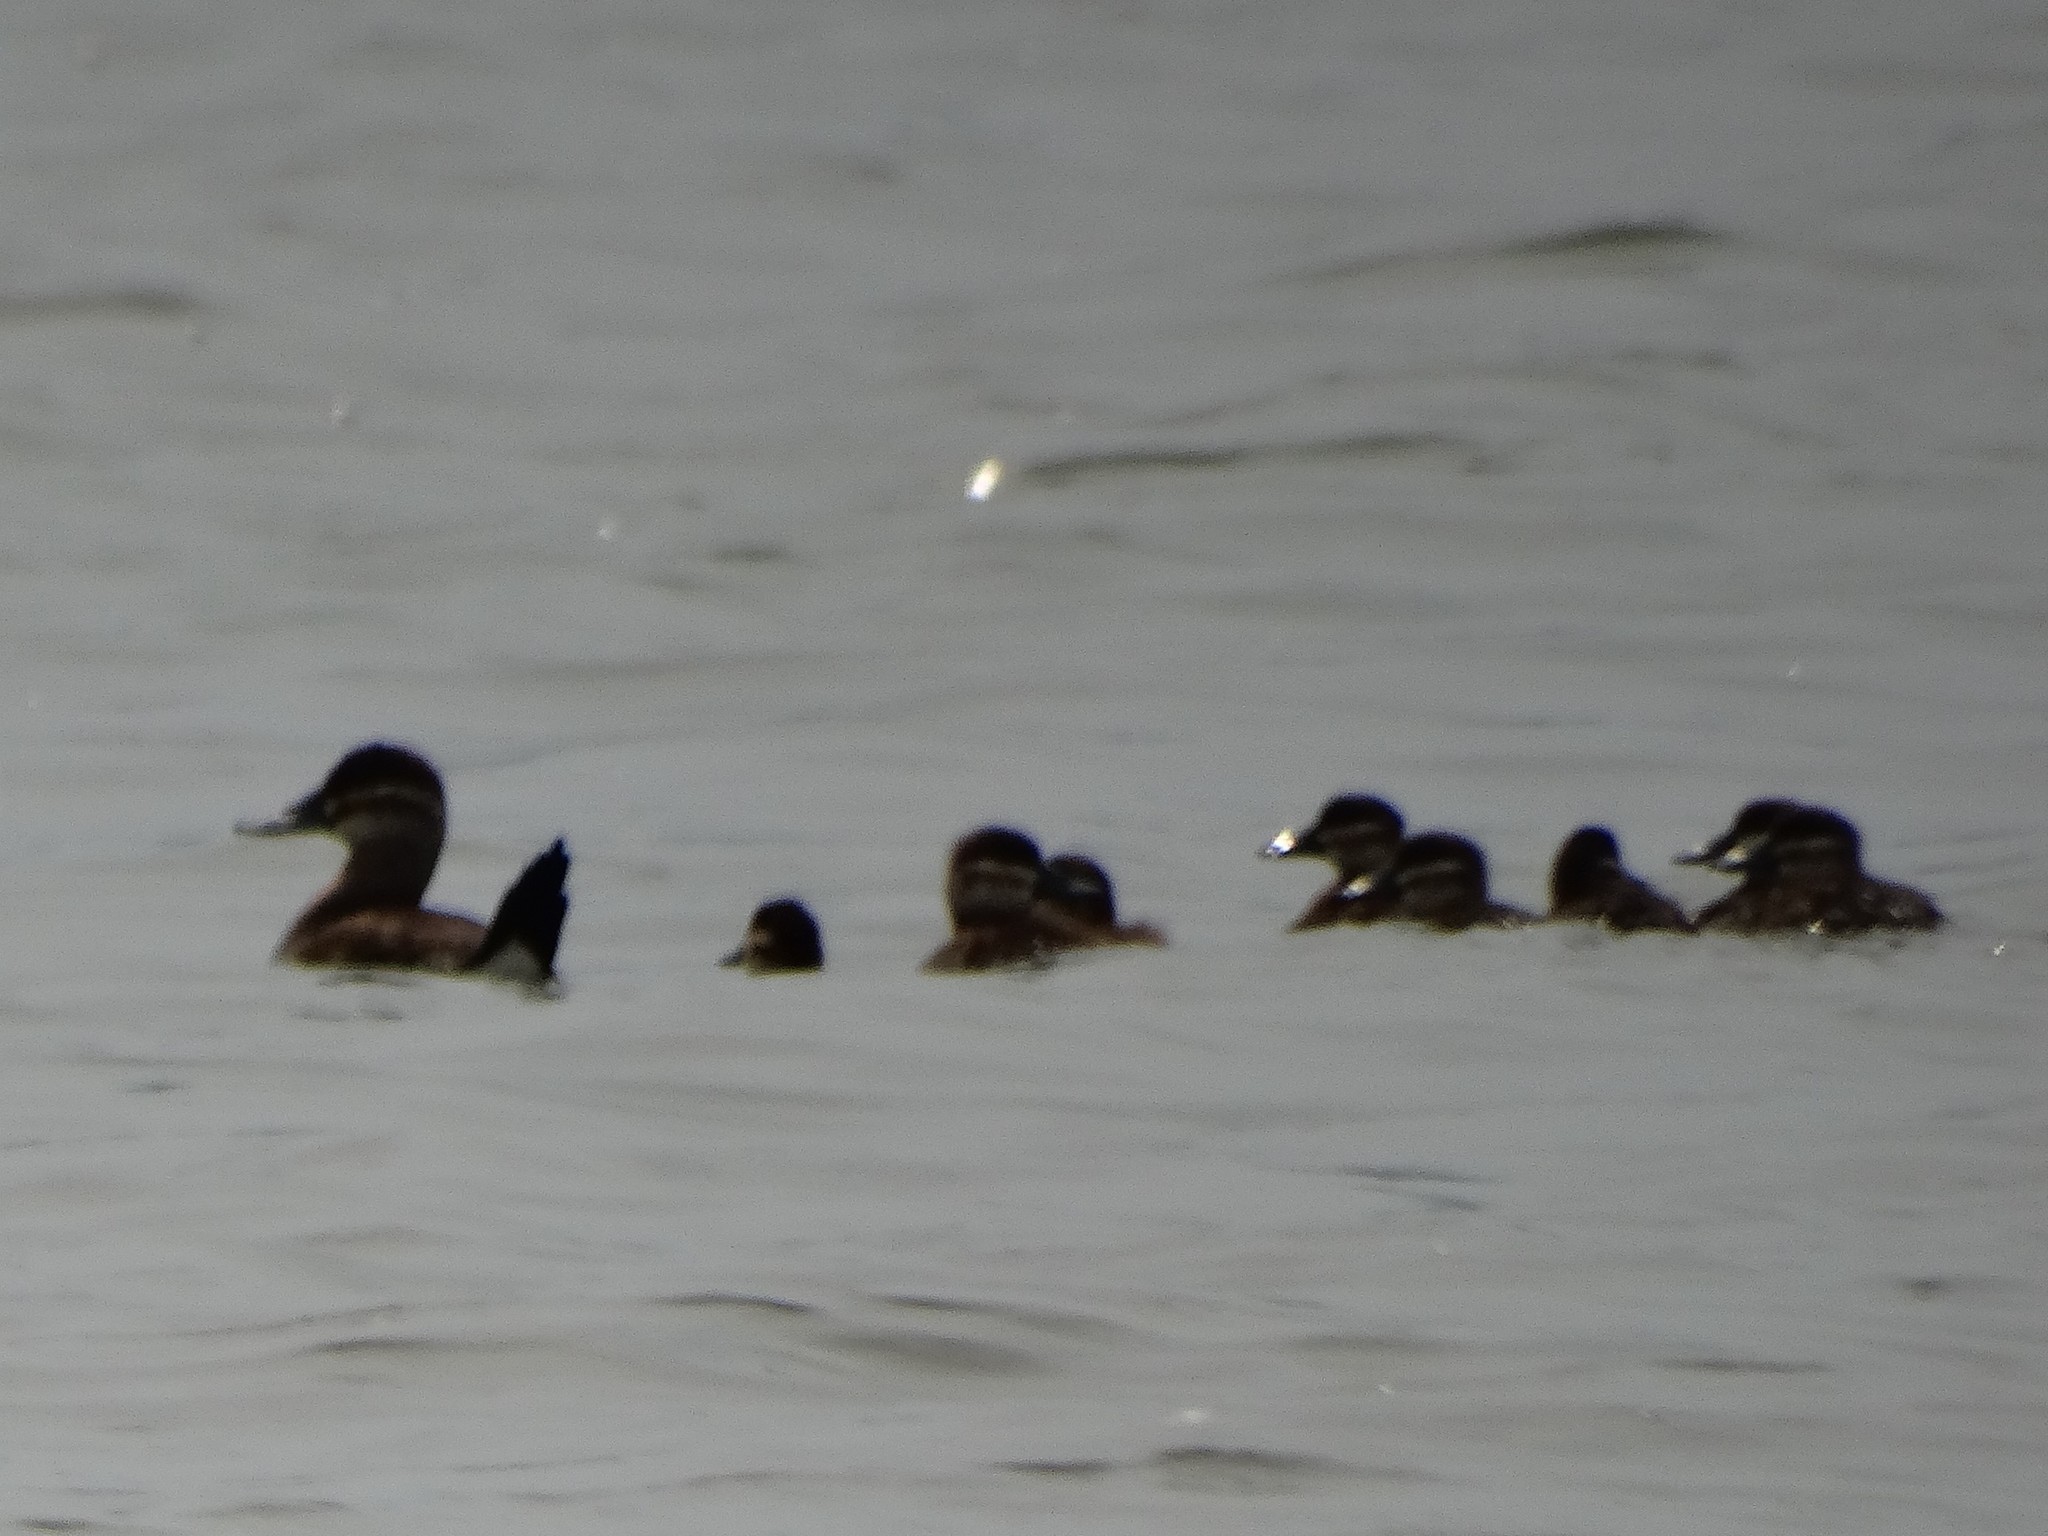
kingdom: Animalia
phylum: Chordata
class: Aves
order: Anseriformes
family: Anatidae
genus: Oxyura
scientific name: Oxyura jamaicensis
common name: Ruddy duck
